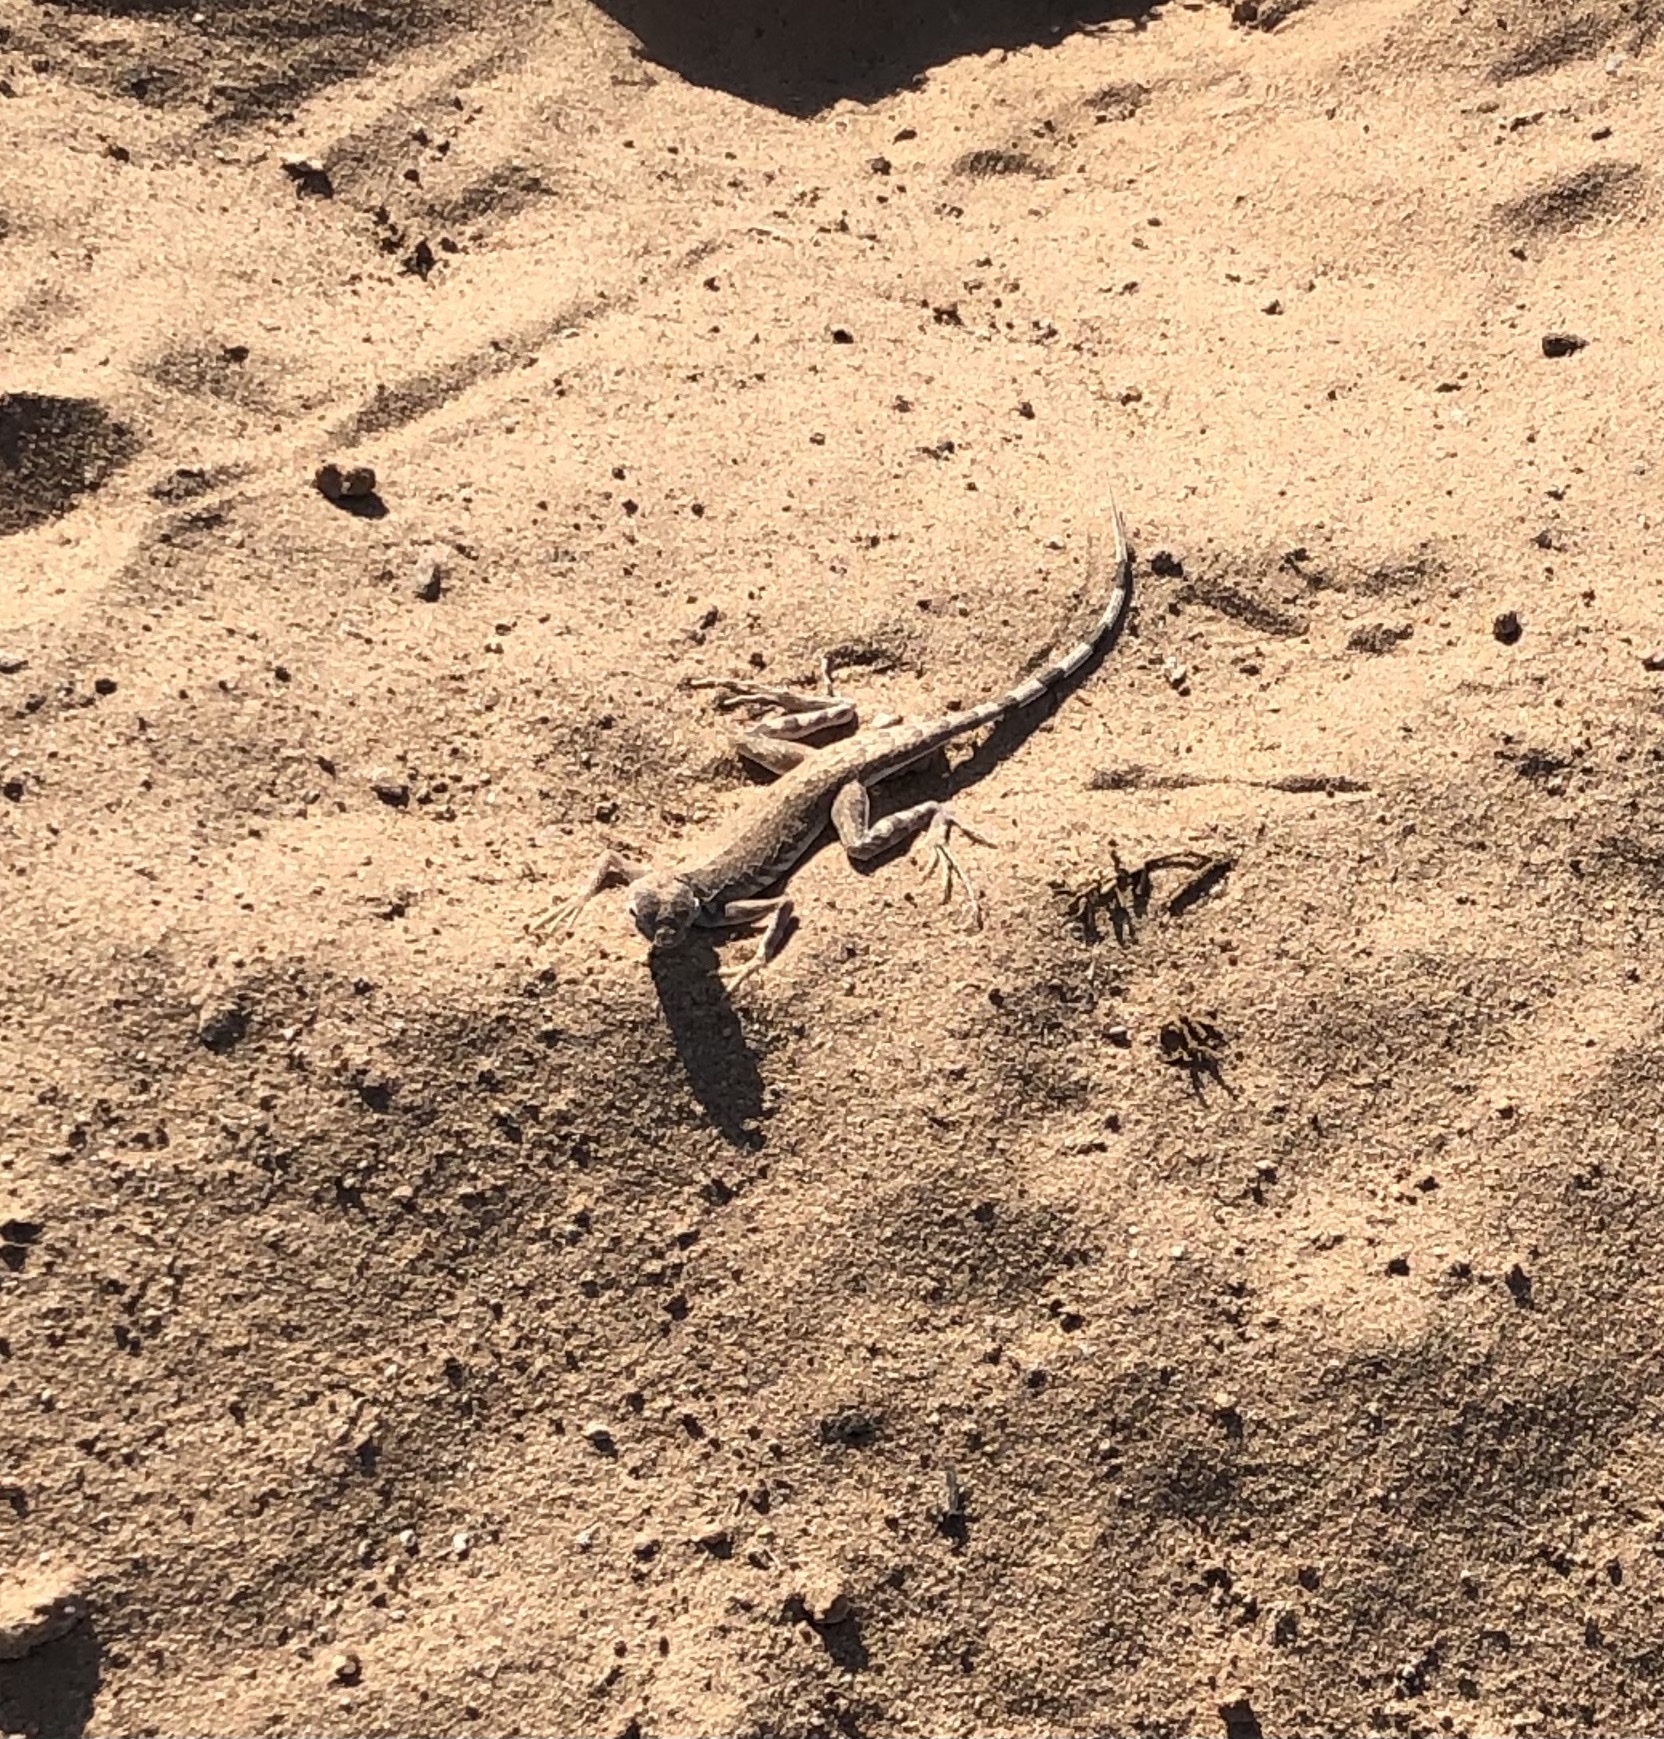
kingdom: Animalia
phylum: Chordata
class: Squamata
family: Phrynosomatidae
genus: Callisaurus
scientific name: Callisaurus draconoides
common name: Zebra-tailed lizard
